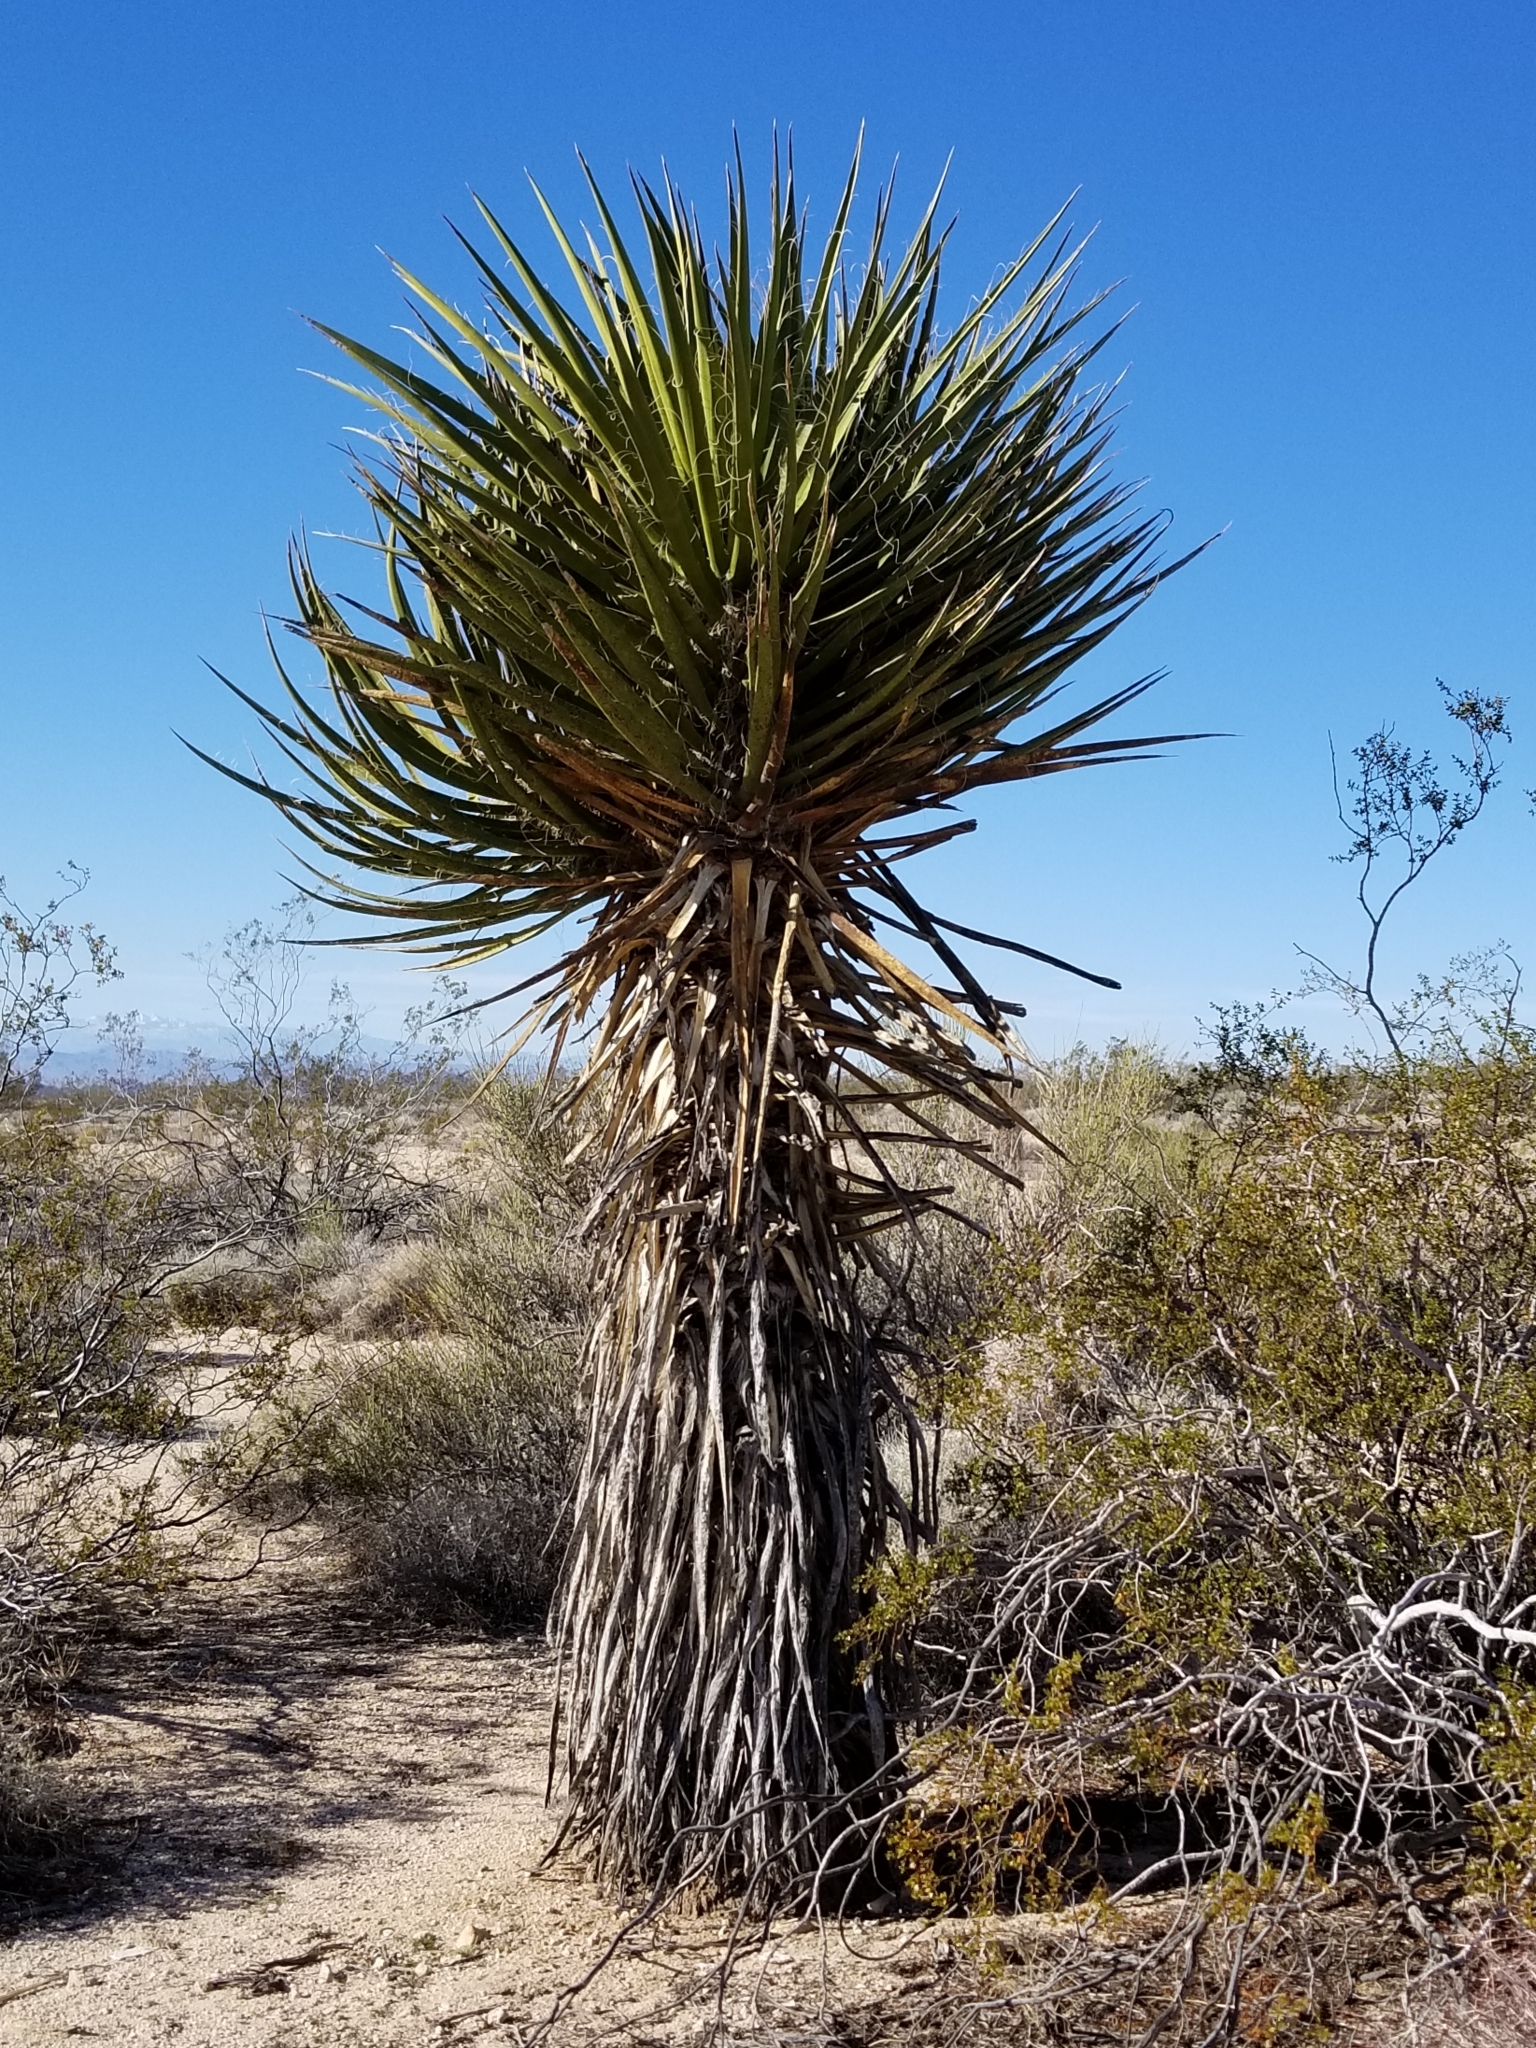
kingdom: Plantae
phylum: Tracheophyta
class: Liliopsida
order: Asparagales
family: Asparagaceae
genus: Yucca
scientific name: Yucca schidigera
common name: Mojave yucca
